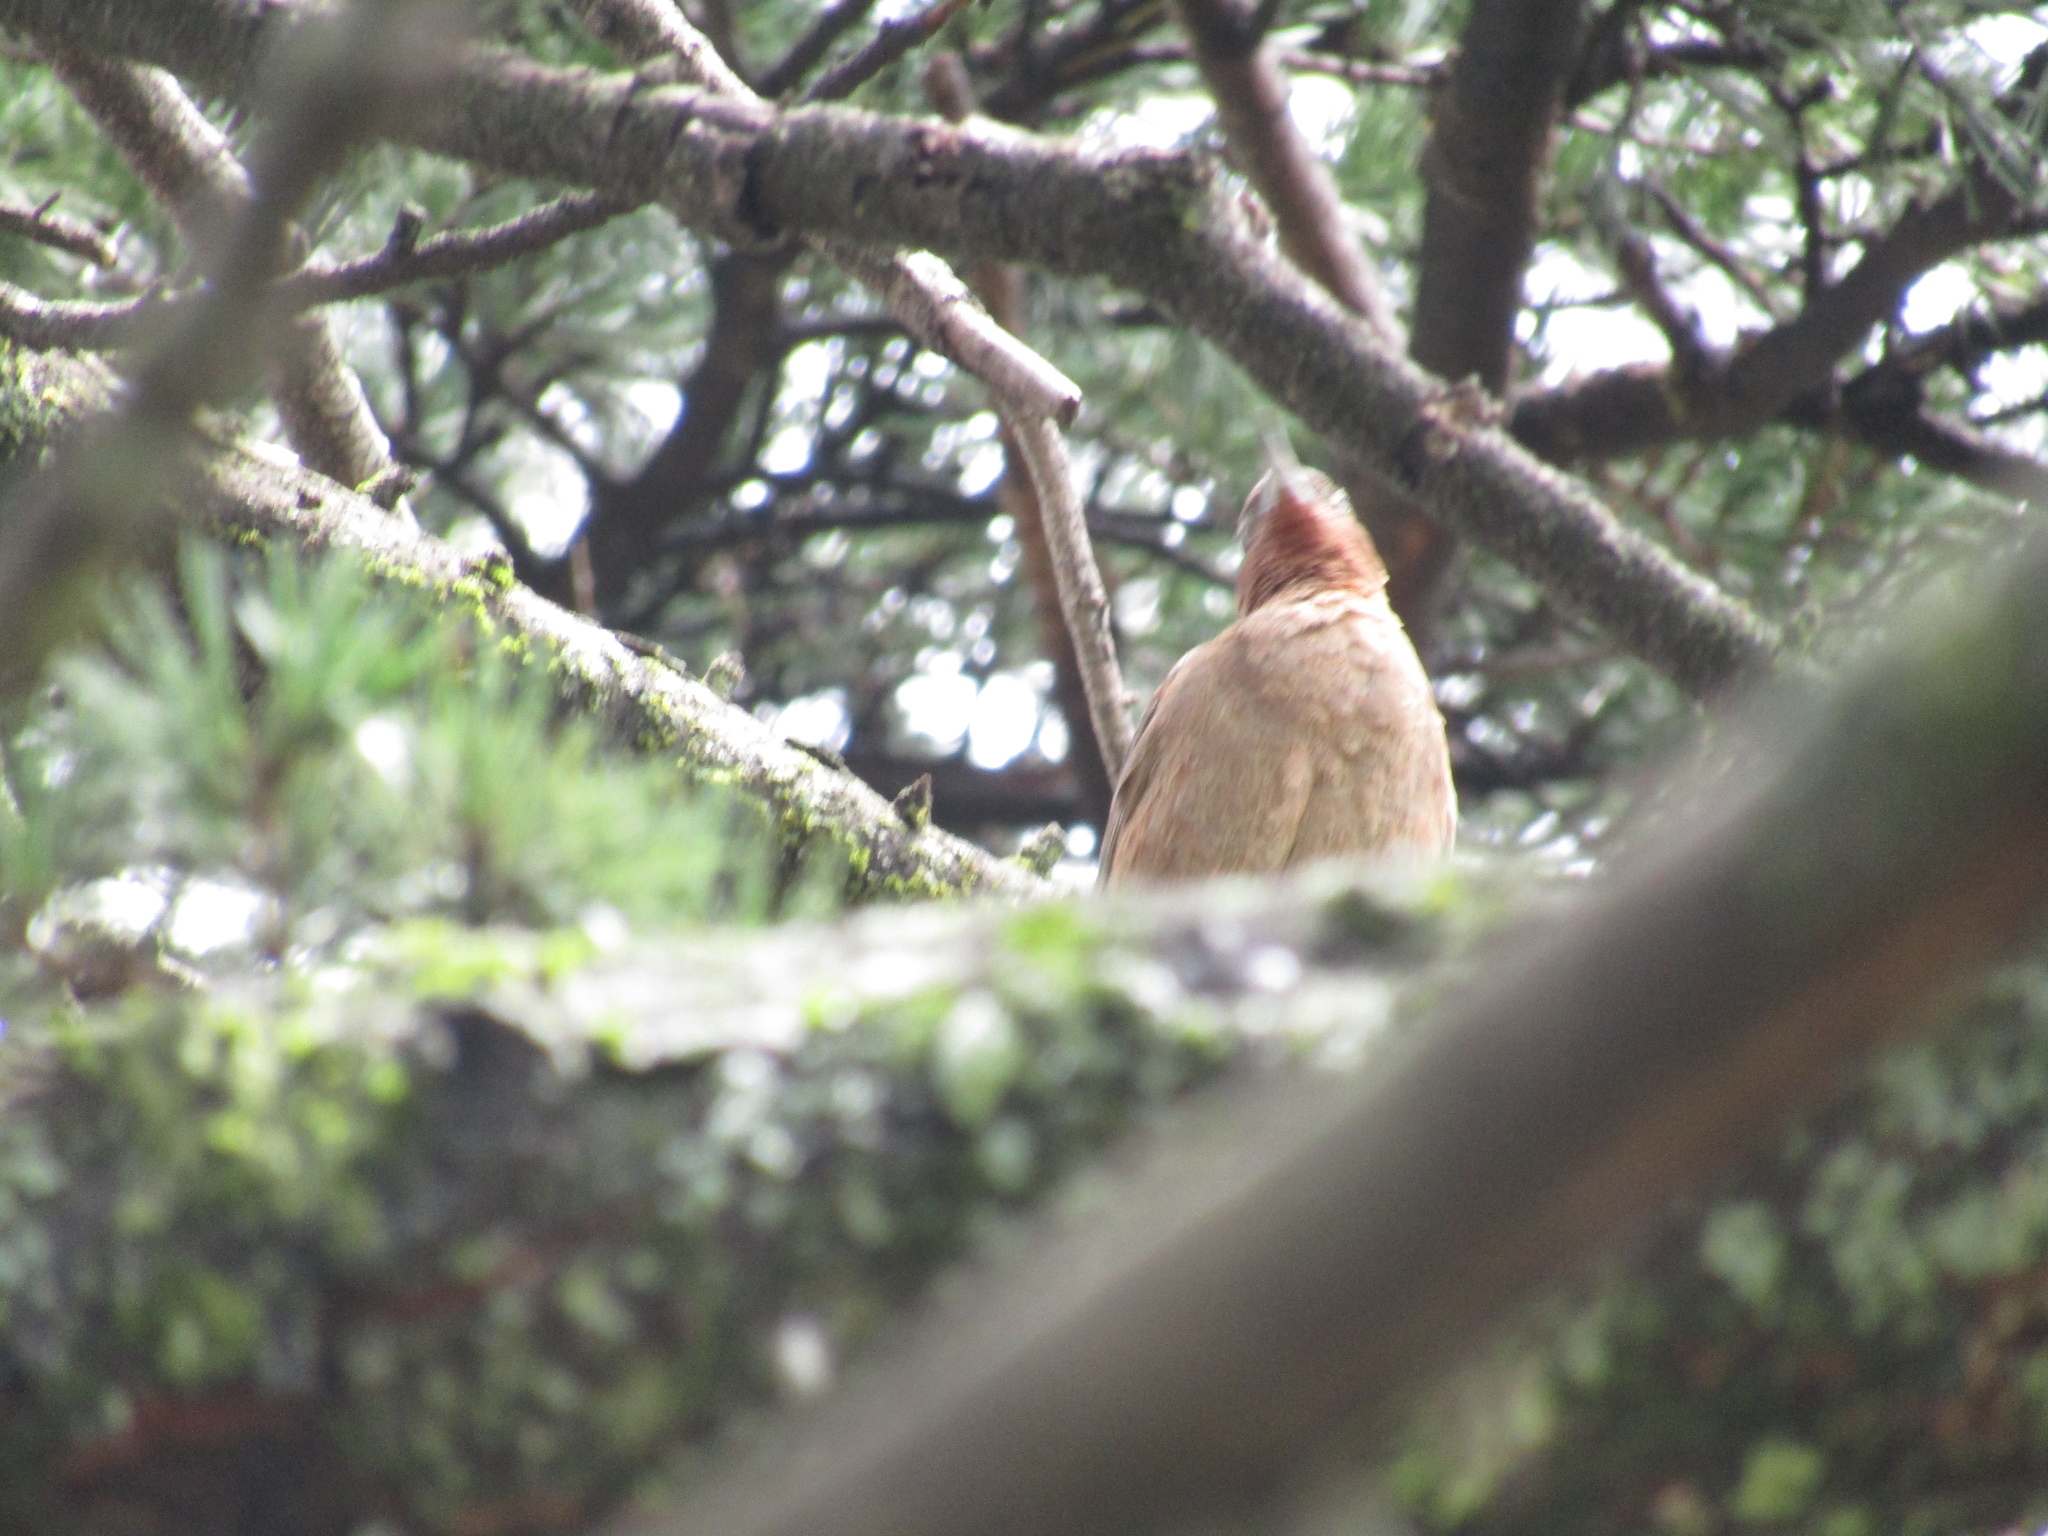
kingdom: Animalia
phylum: Chordata
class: Aves
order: Passeriformes
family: Furnariidae
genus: Pseudoseisura
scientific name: Pseudoseisura lophotes
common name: Brown cacholote
